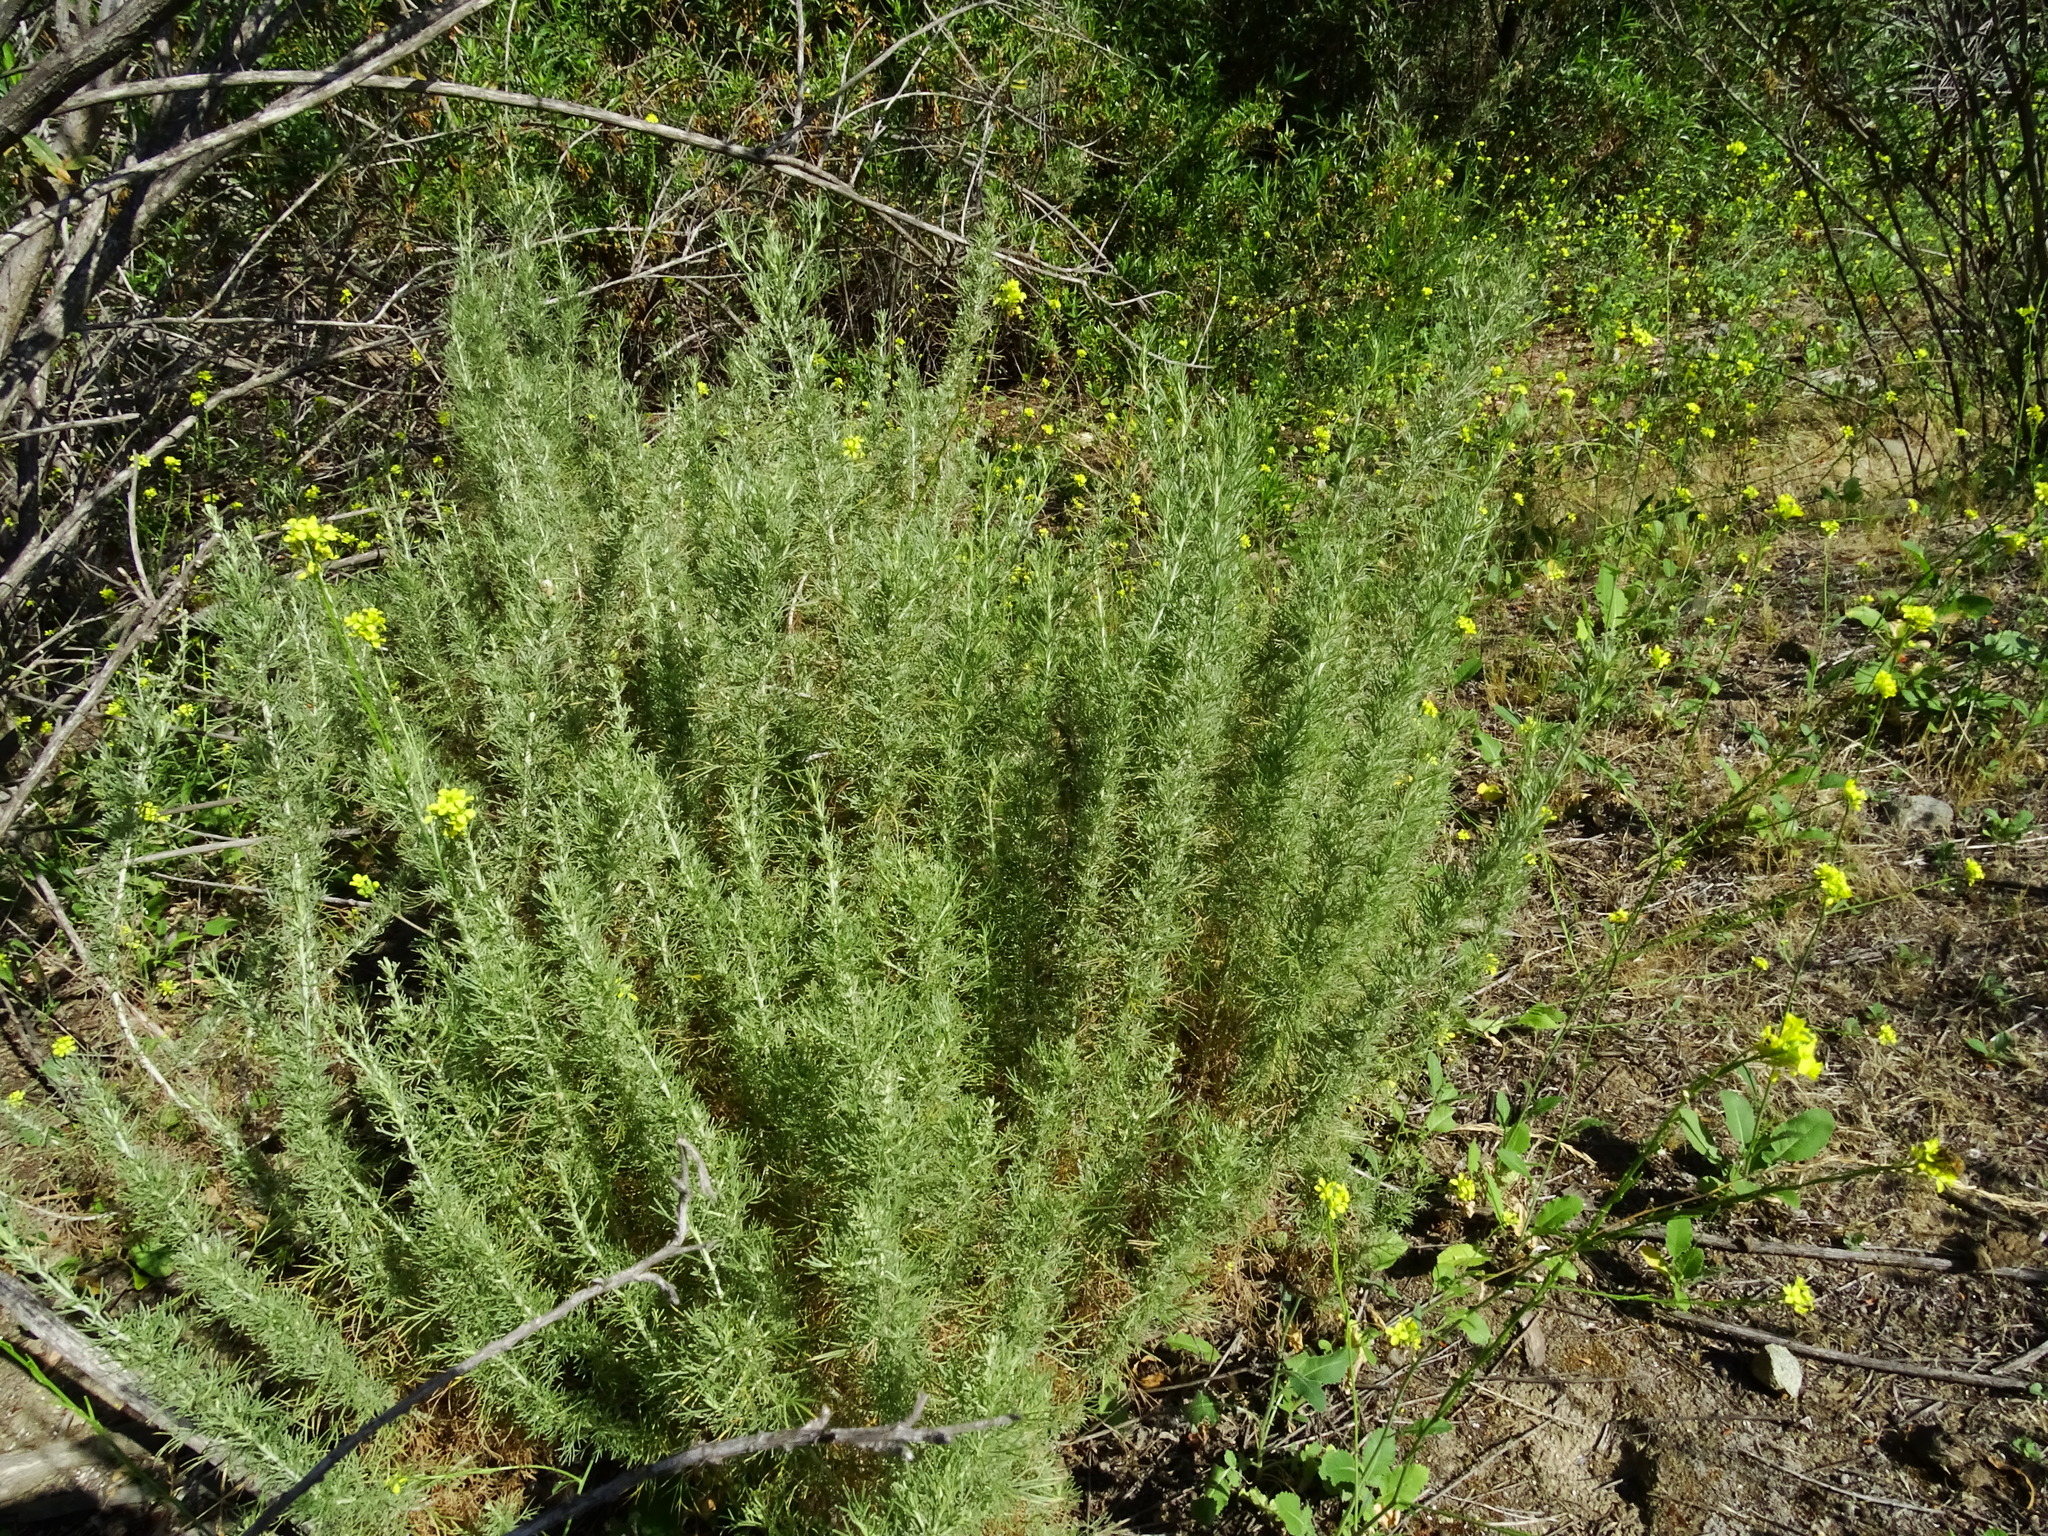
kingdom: Plantae
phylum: Tracheophyta
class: Magnoliopsida
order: Asterales
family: Asteraceae
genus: Artemisia
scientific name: Artemisia californica
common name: California sagebrush
